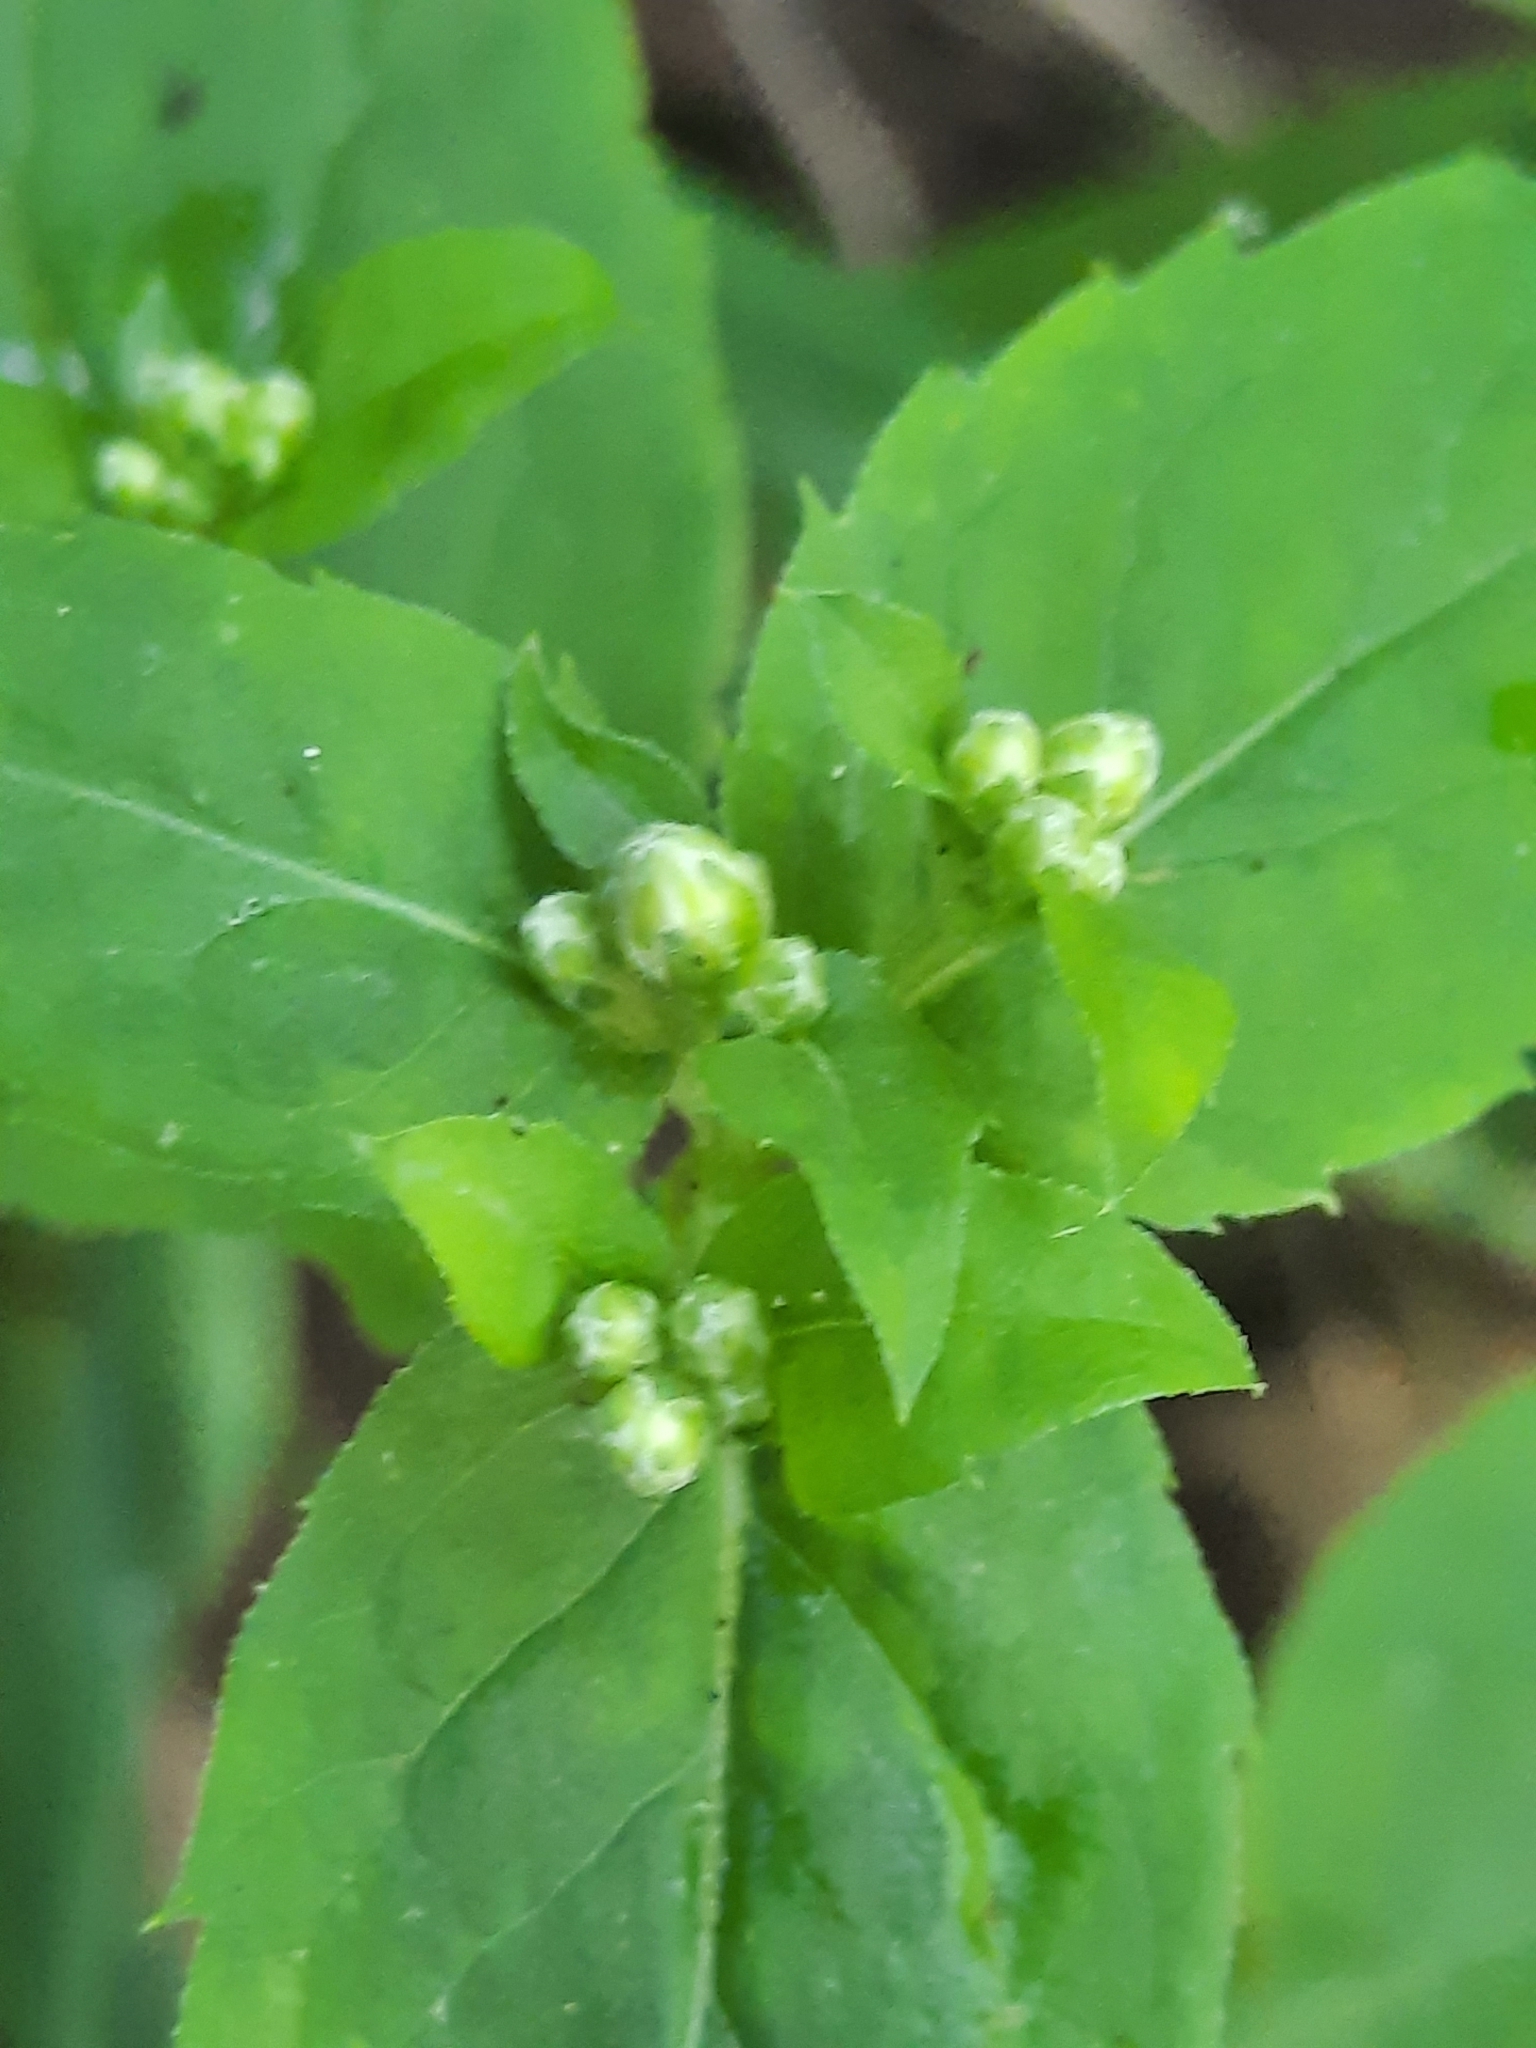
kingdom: Plantae
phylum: Tracheophyta
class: Magnoliopsida
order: Asterales
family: Asteraceae
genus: Eurybia
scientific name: Eurybia divaricata
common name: White wood aster
